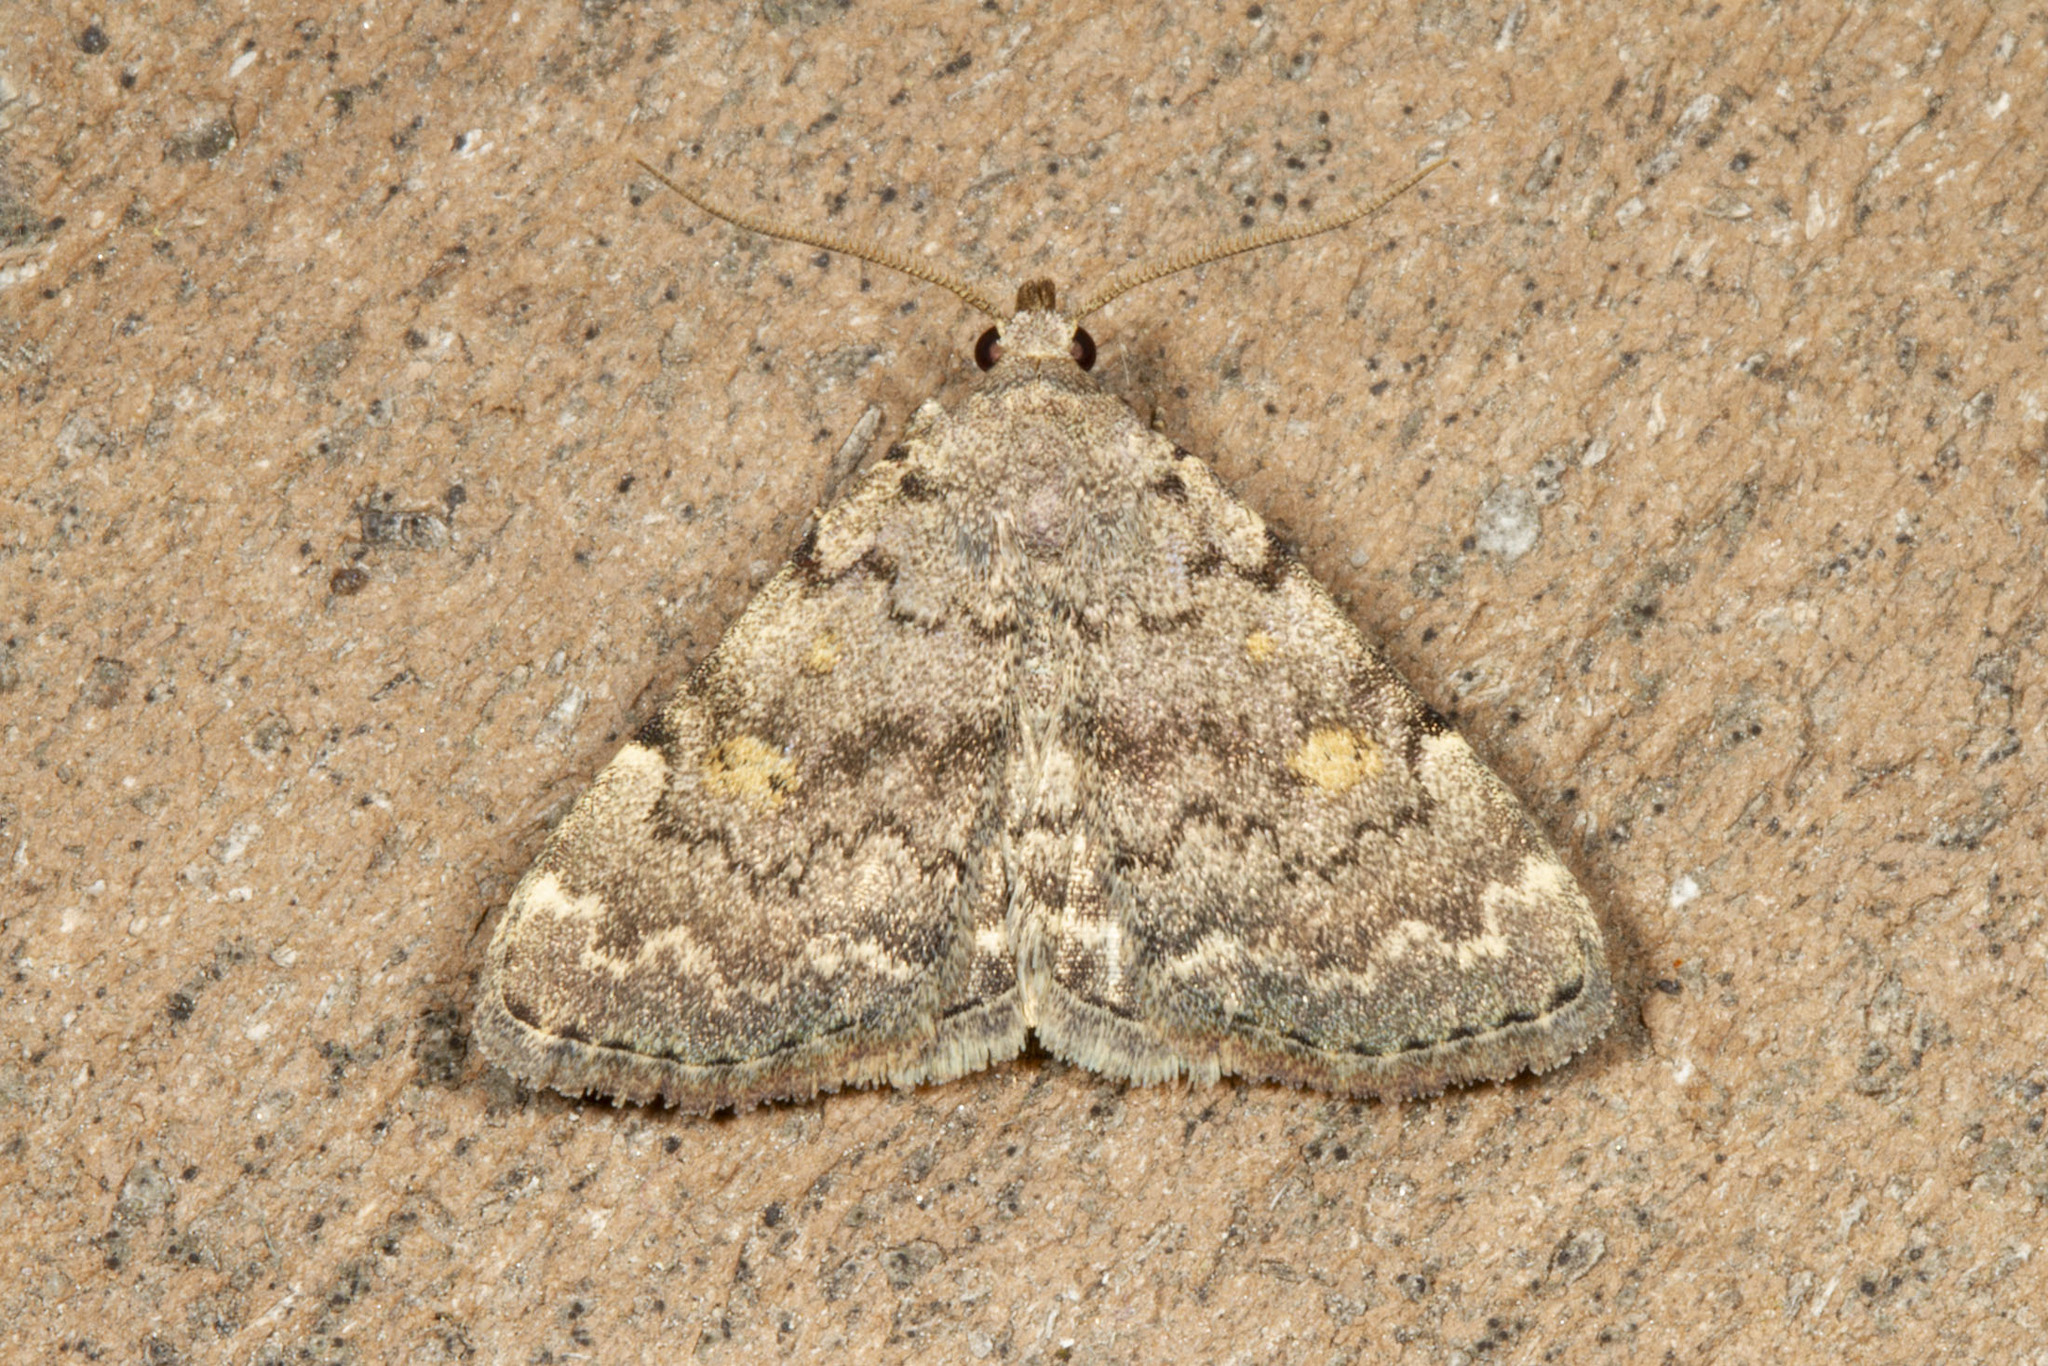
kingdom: Animalia
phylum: Arthropoda
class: Insecta
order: Lepidoptera
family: Erebidae
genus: Idia
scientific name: Idia aemula
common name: Common idia moth
